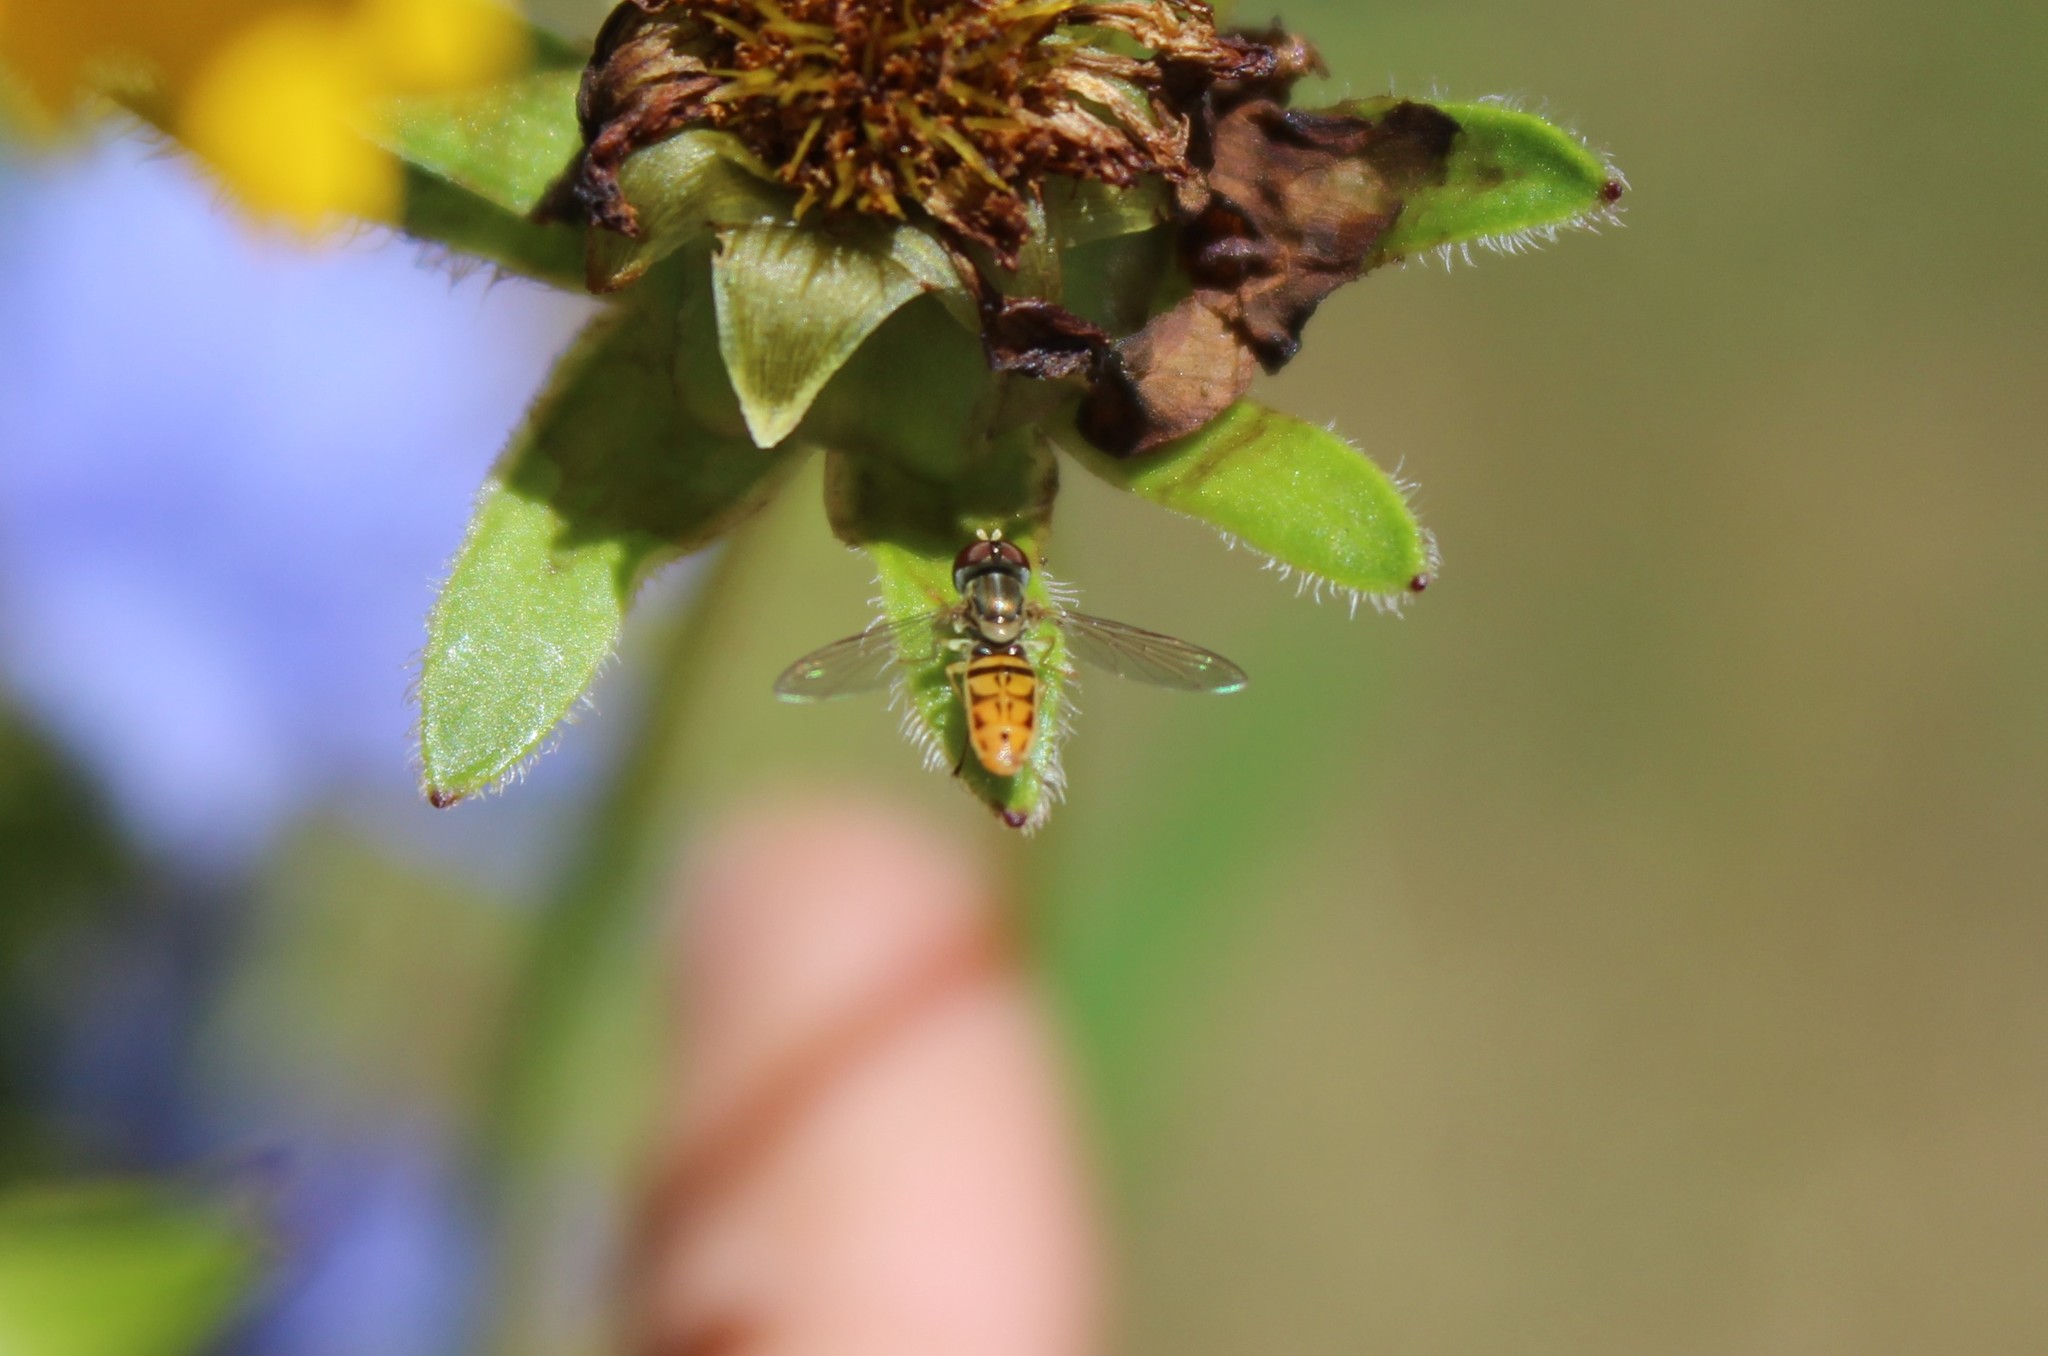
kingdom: Animalia
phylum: Arthropoda
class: Insecta
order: Diptera
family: Syrphidae
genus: Toxomerus
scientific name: Toxomerus marginatus
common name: Syrphid fly
